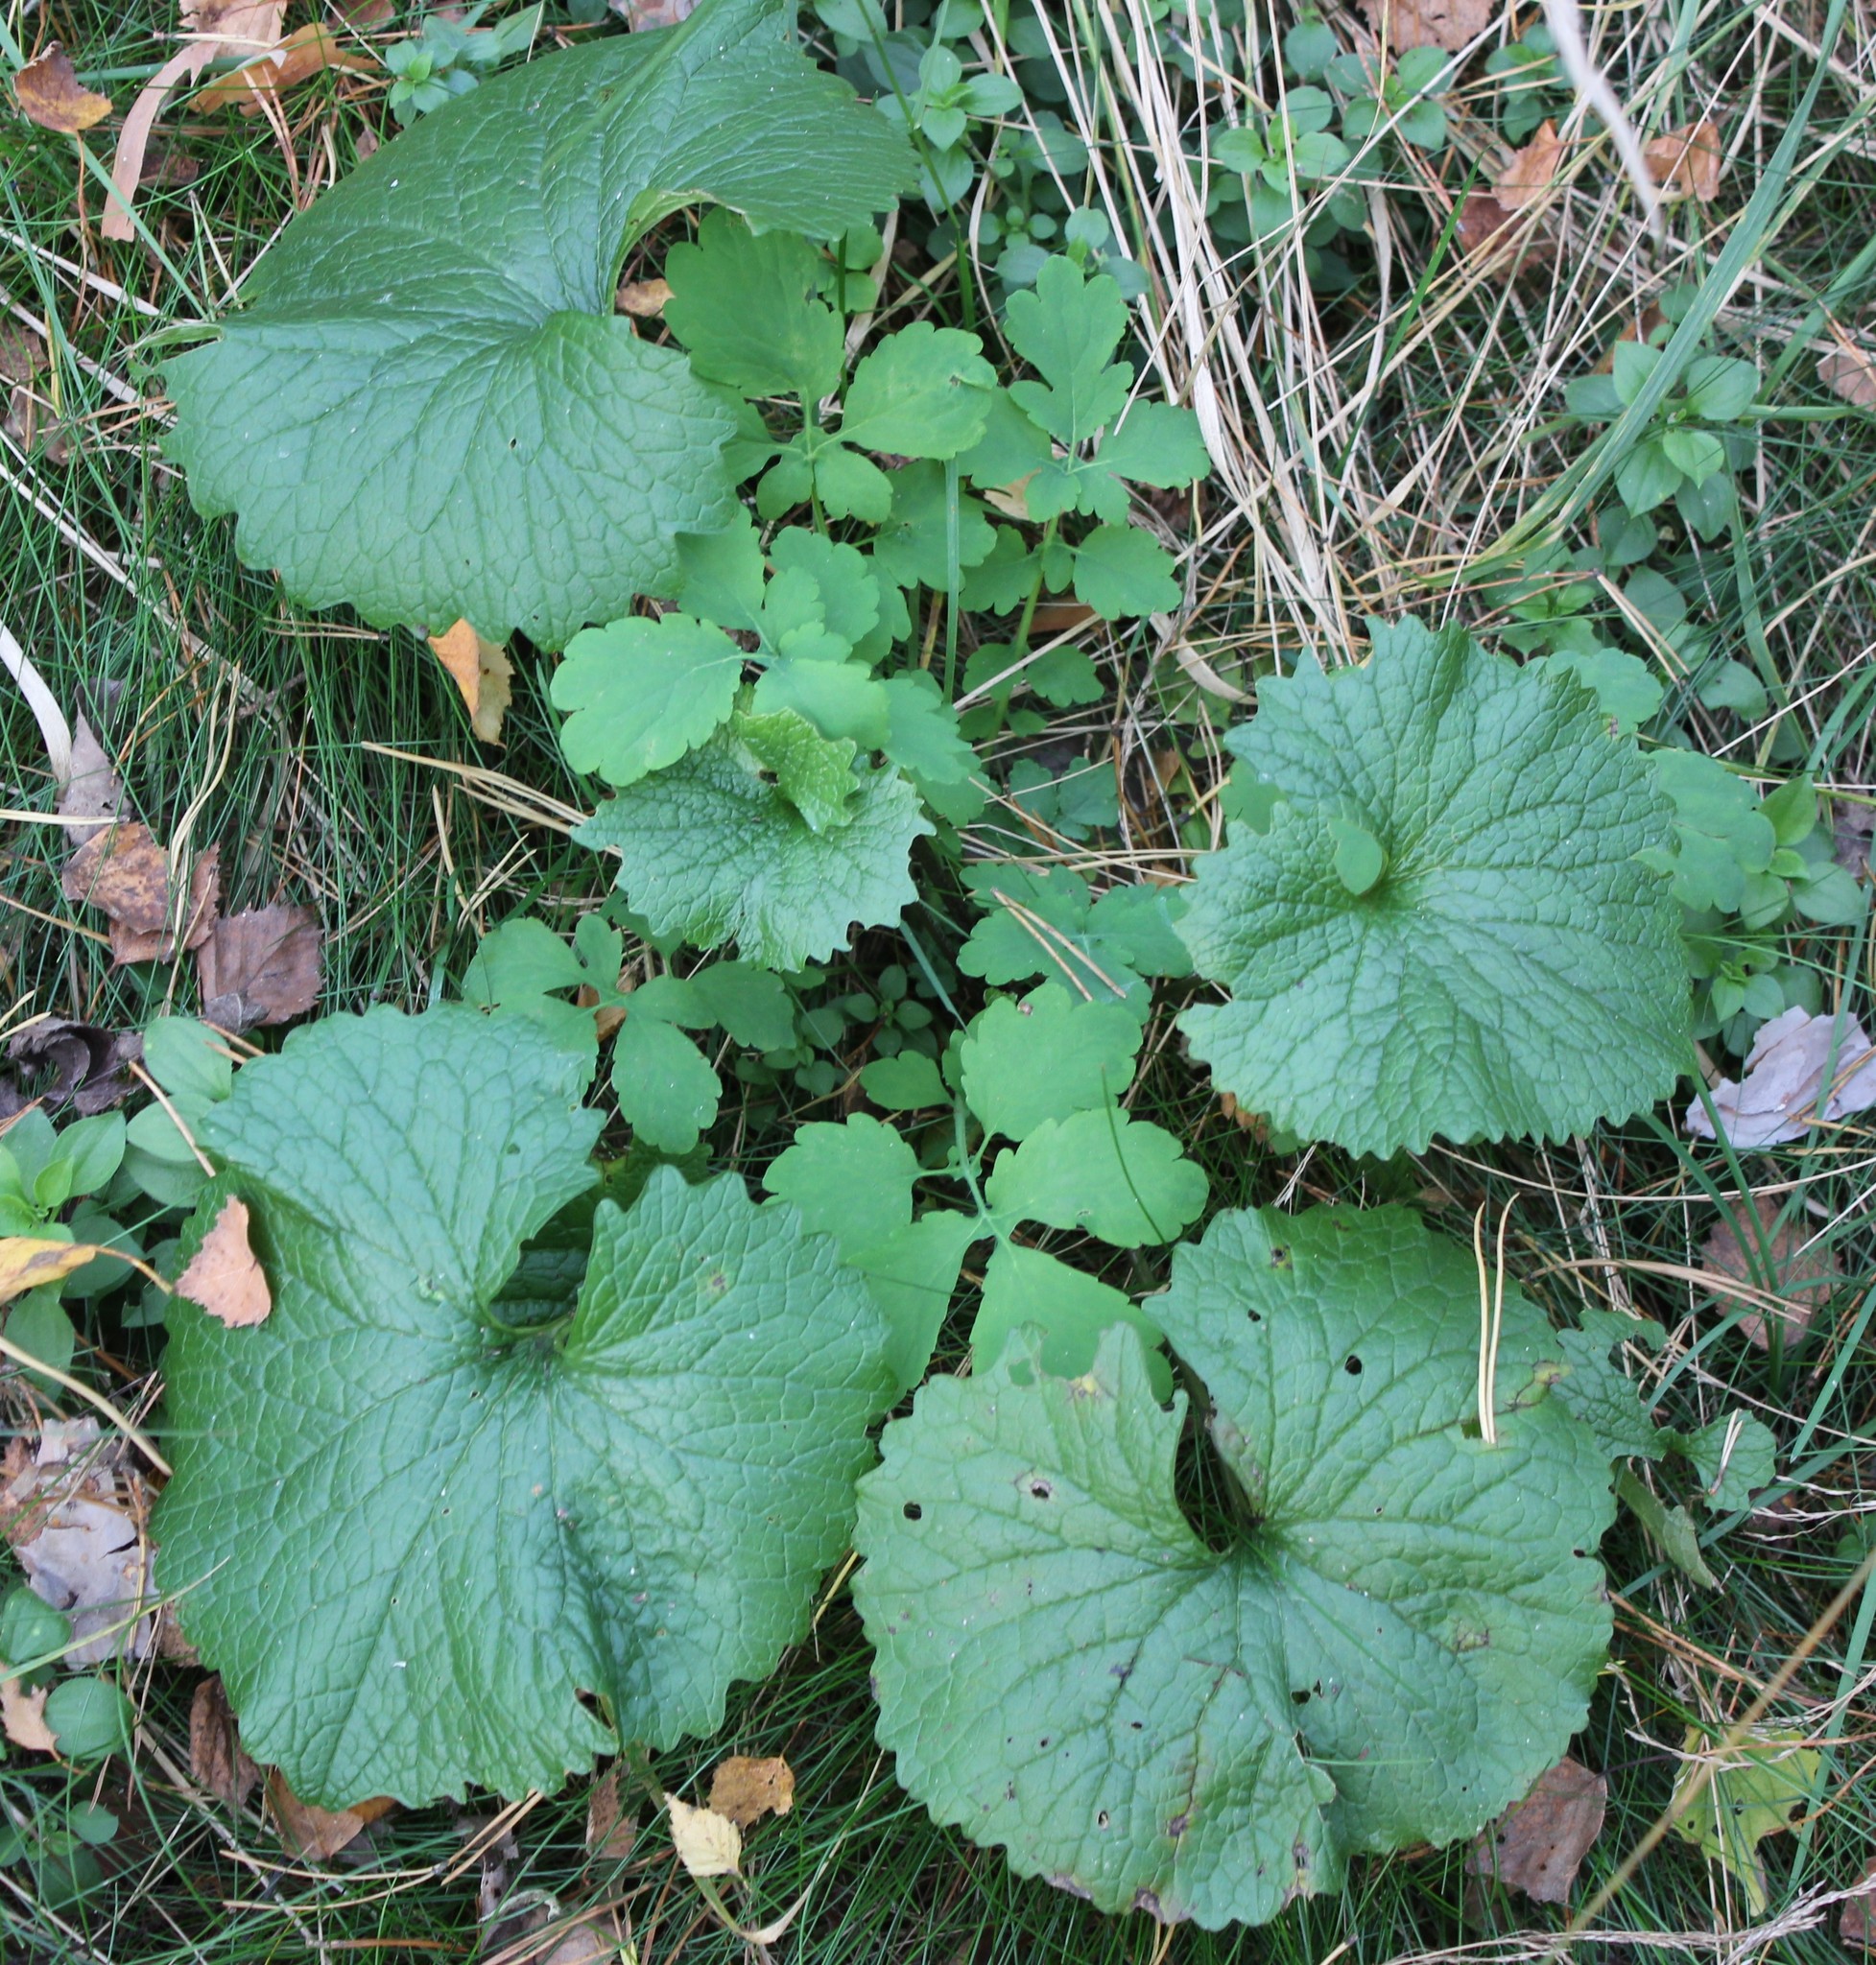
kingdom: Plantae
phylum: Tracheophyta
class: Magnoliopsida
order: Brassicales
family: Brassicaceae
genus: Alliaria
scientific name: Alliaria petiolata
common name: Garlic mustard
